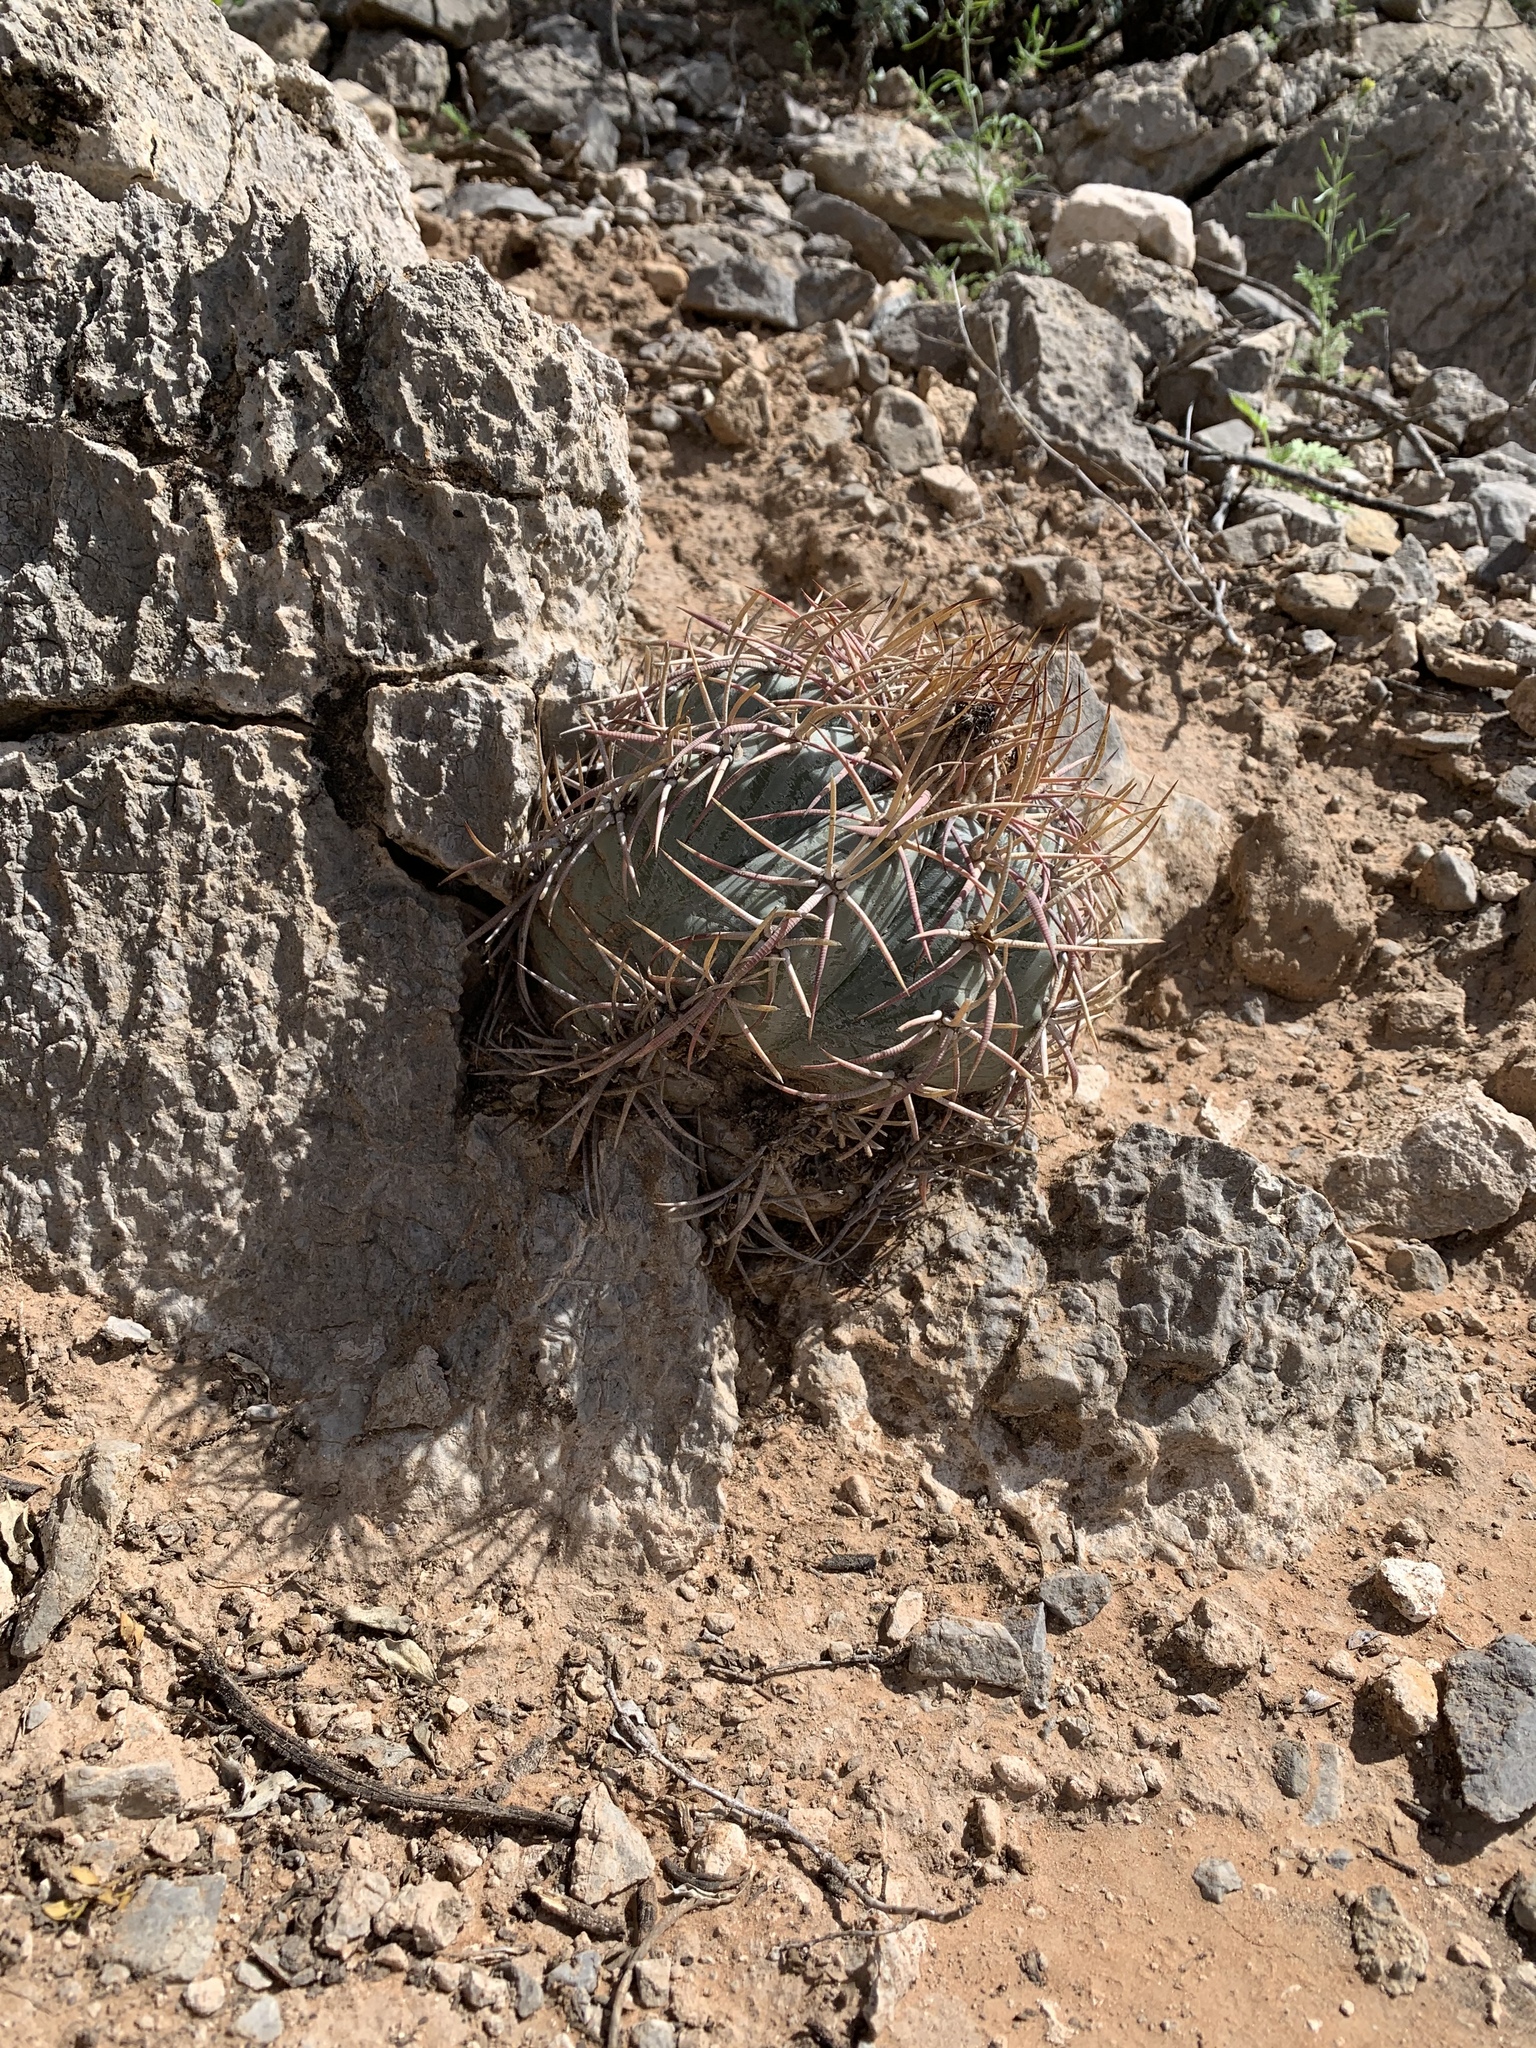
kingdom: Plantae
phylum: Tracheophyta
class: Magnoliopsida
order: Caryophyllales
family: Cactaceae
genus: Echinocactus
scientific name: Echinocactus horizonthalonius
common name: Devilshead
